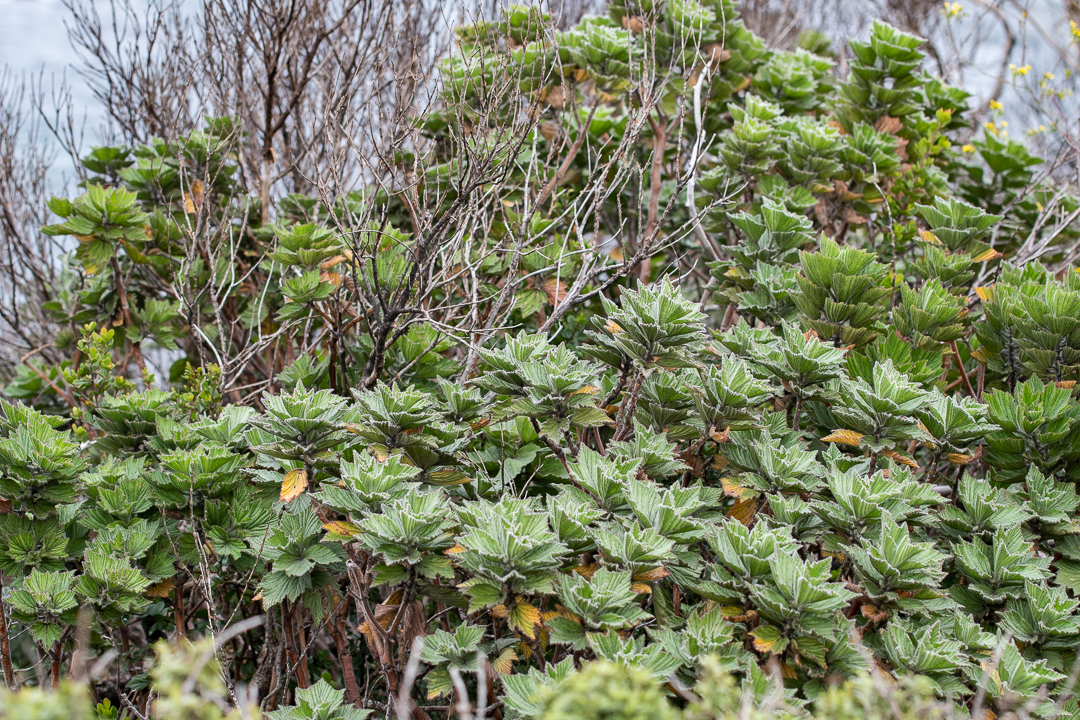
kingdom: Plantae
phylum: Tracheophyta
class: Magnoliopsida
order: Geraniales
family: Geraniaceae
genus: Pelargonium
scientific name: Pelargonium cucullatum
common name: Tree pelargonium
